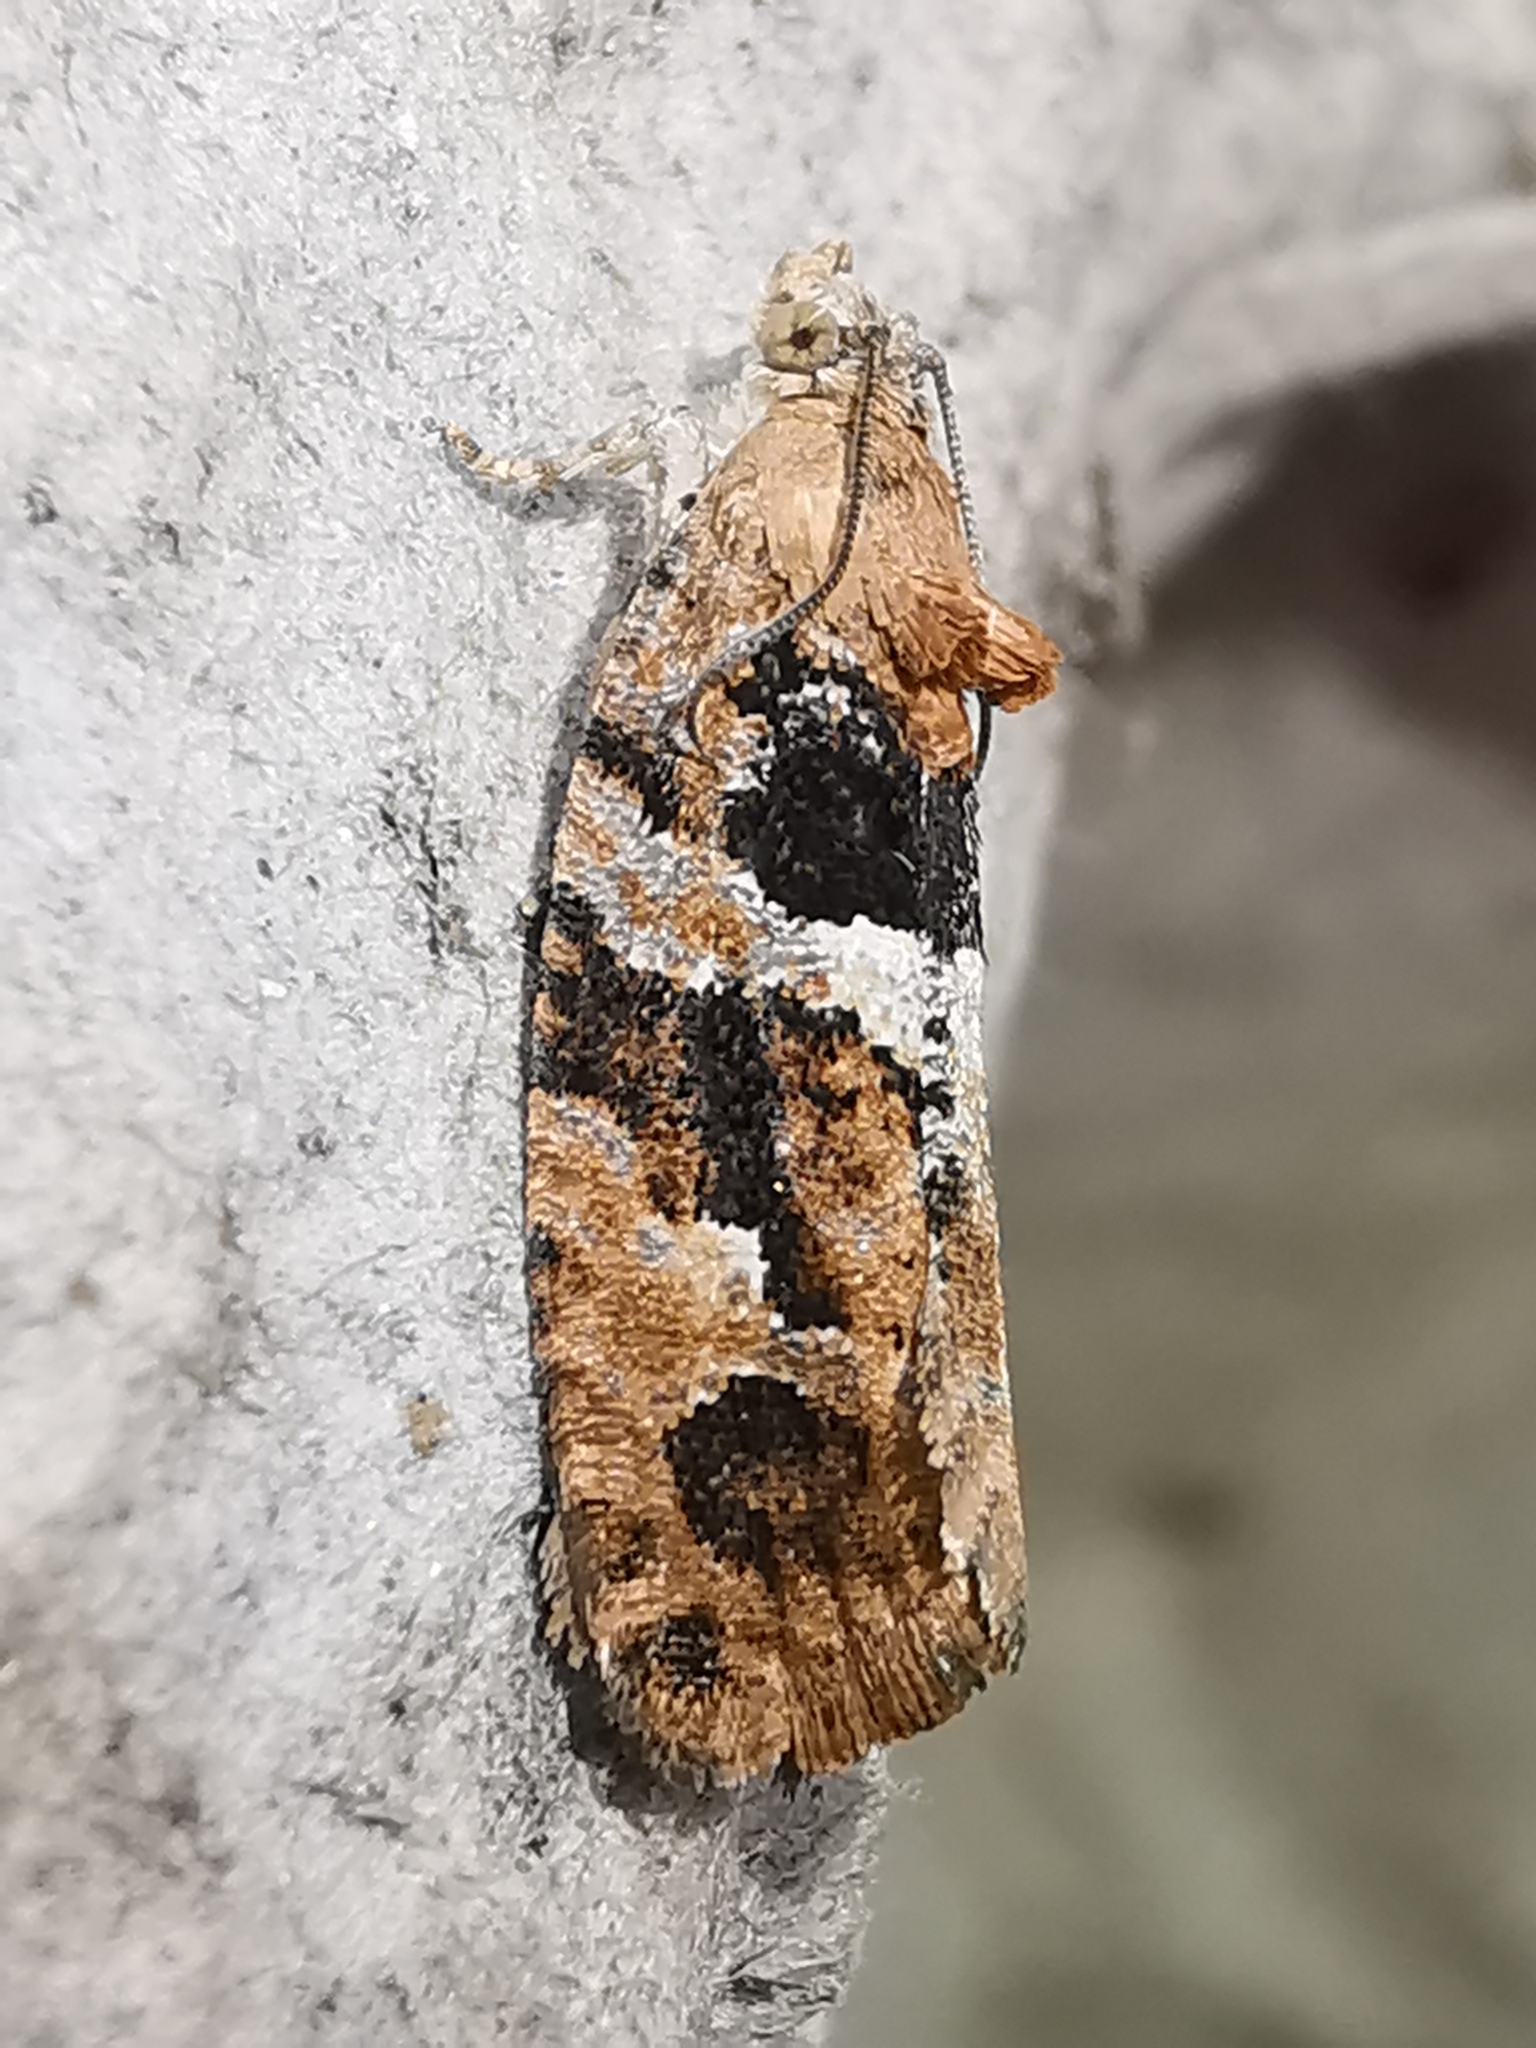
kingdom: Animalia
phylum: Arthropoda
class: Insecta
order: Lepidoptera
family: Tortricidae
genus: Eudemis
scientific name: Eudemis profundana
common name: Diamond-back marble
